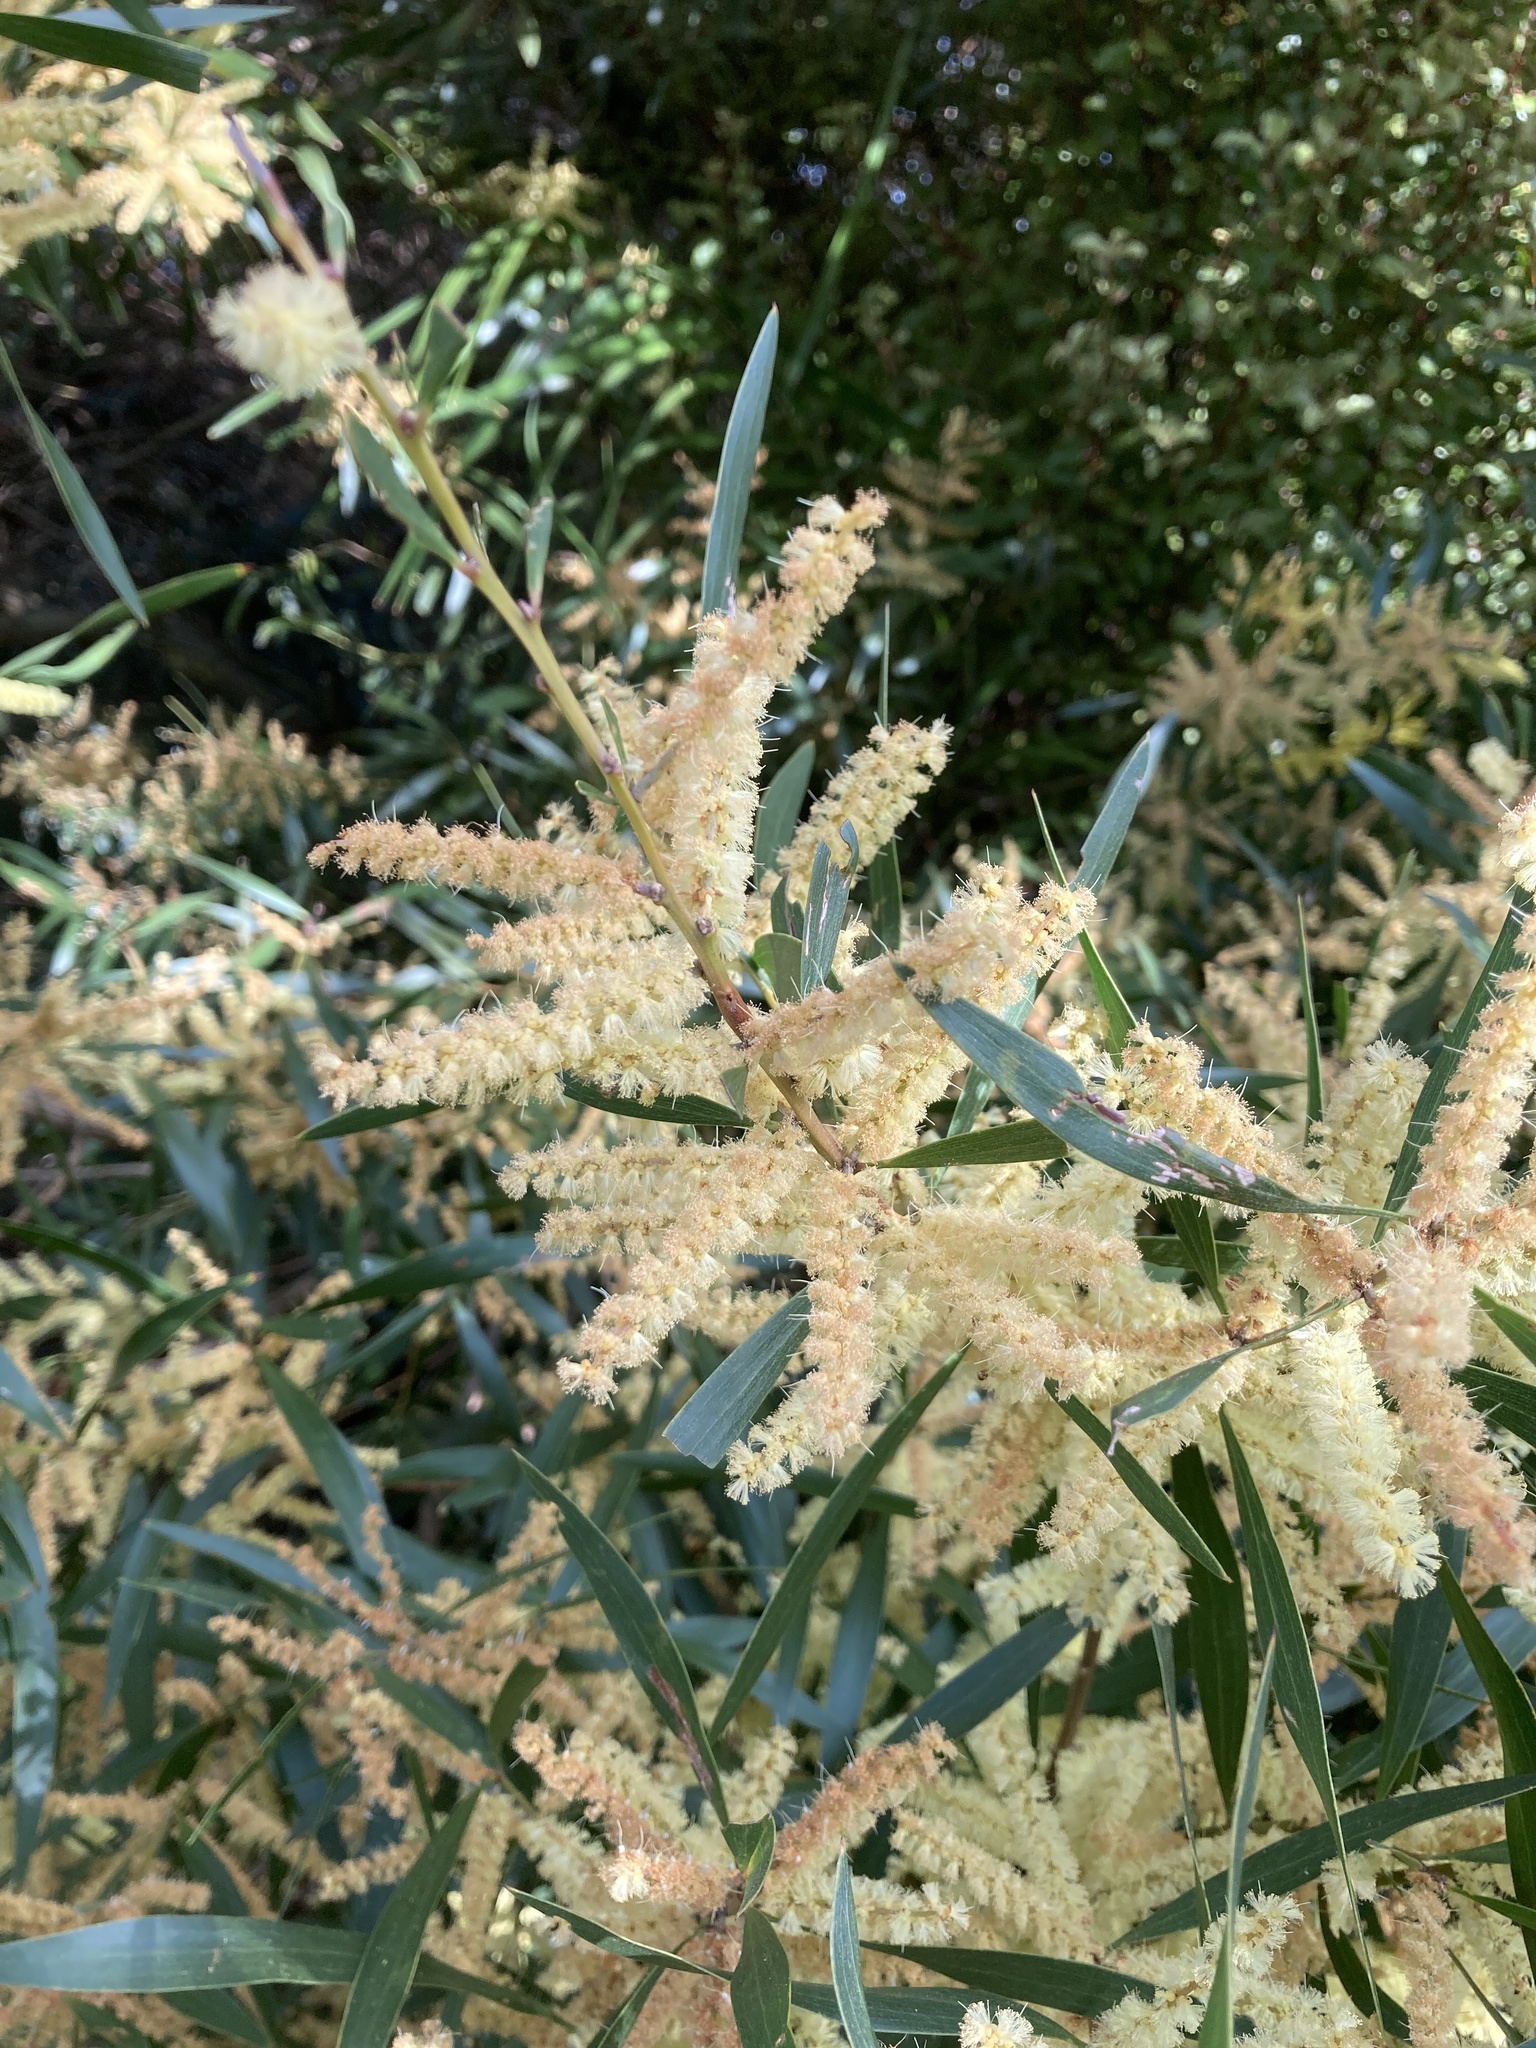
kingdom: Plantae
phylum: Tracheophyta
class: Magnoliopsida
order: Fabales
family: Fabaceae
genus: Acacia
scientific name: Acacia longifolia
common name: Sydney golden wattle
